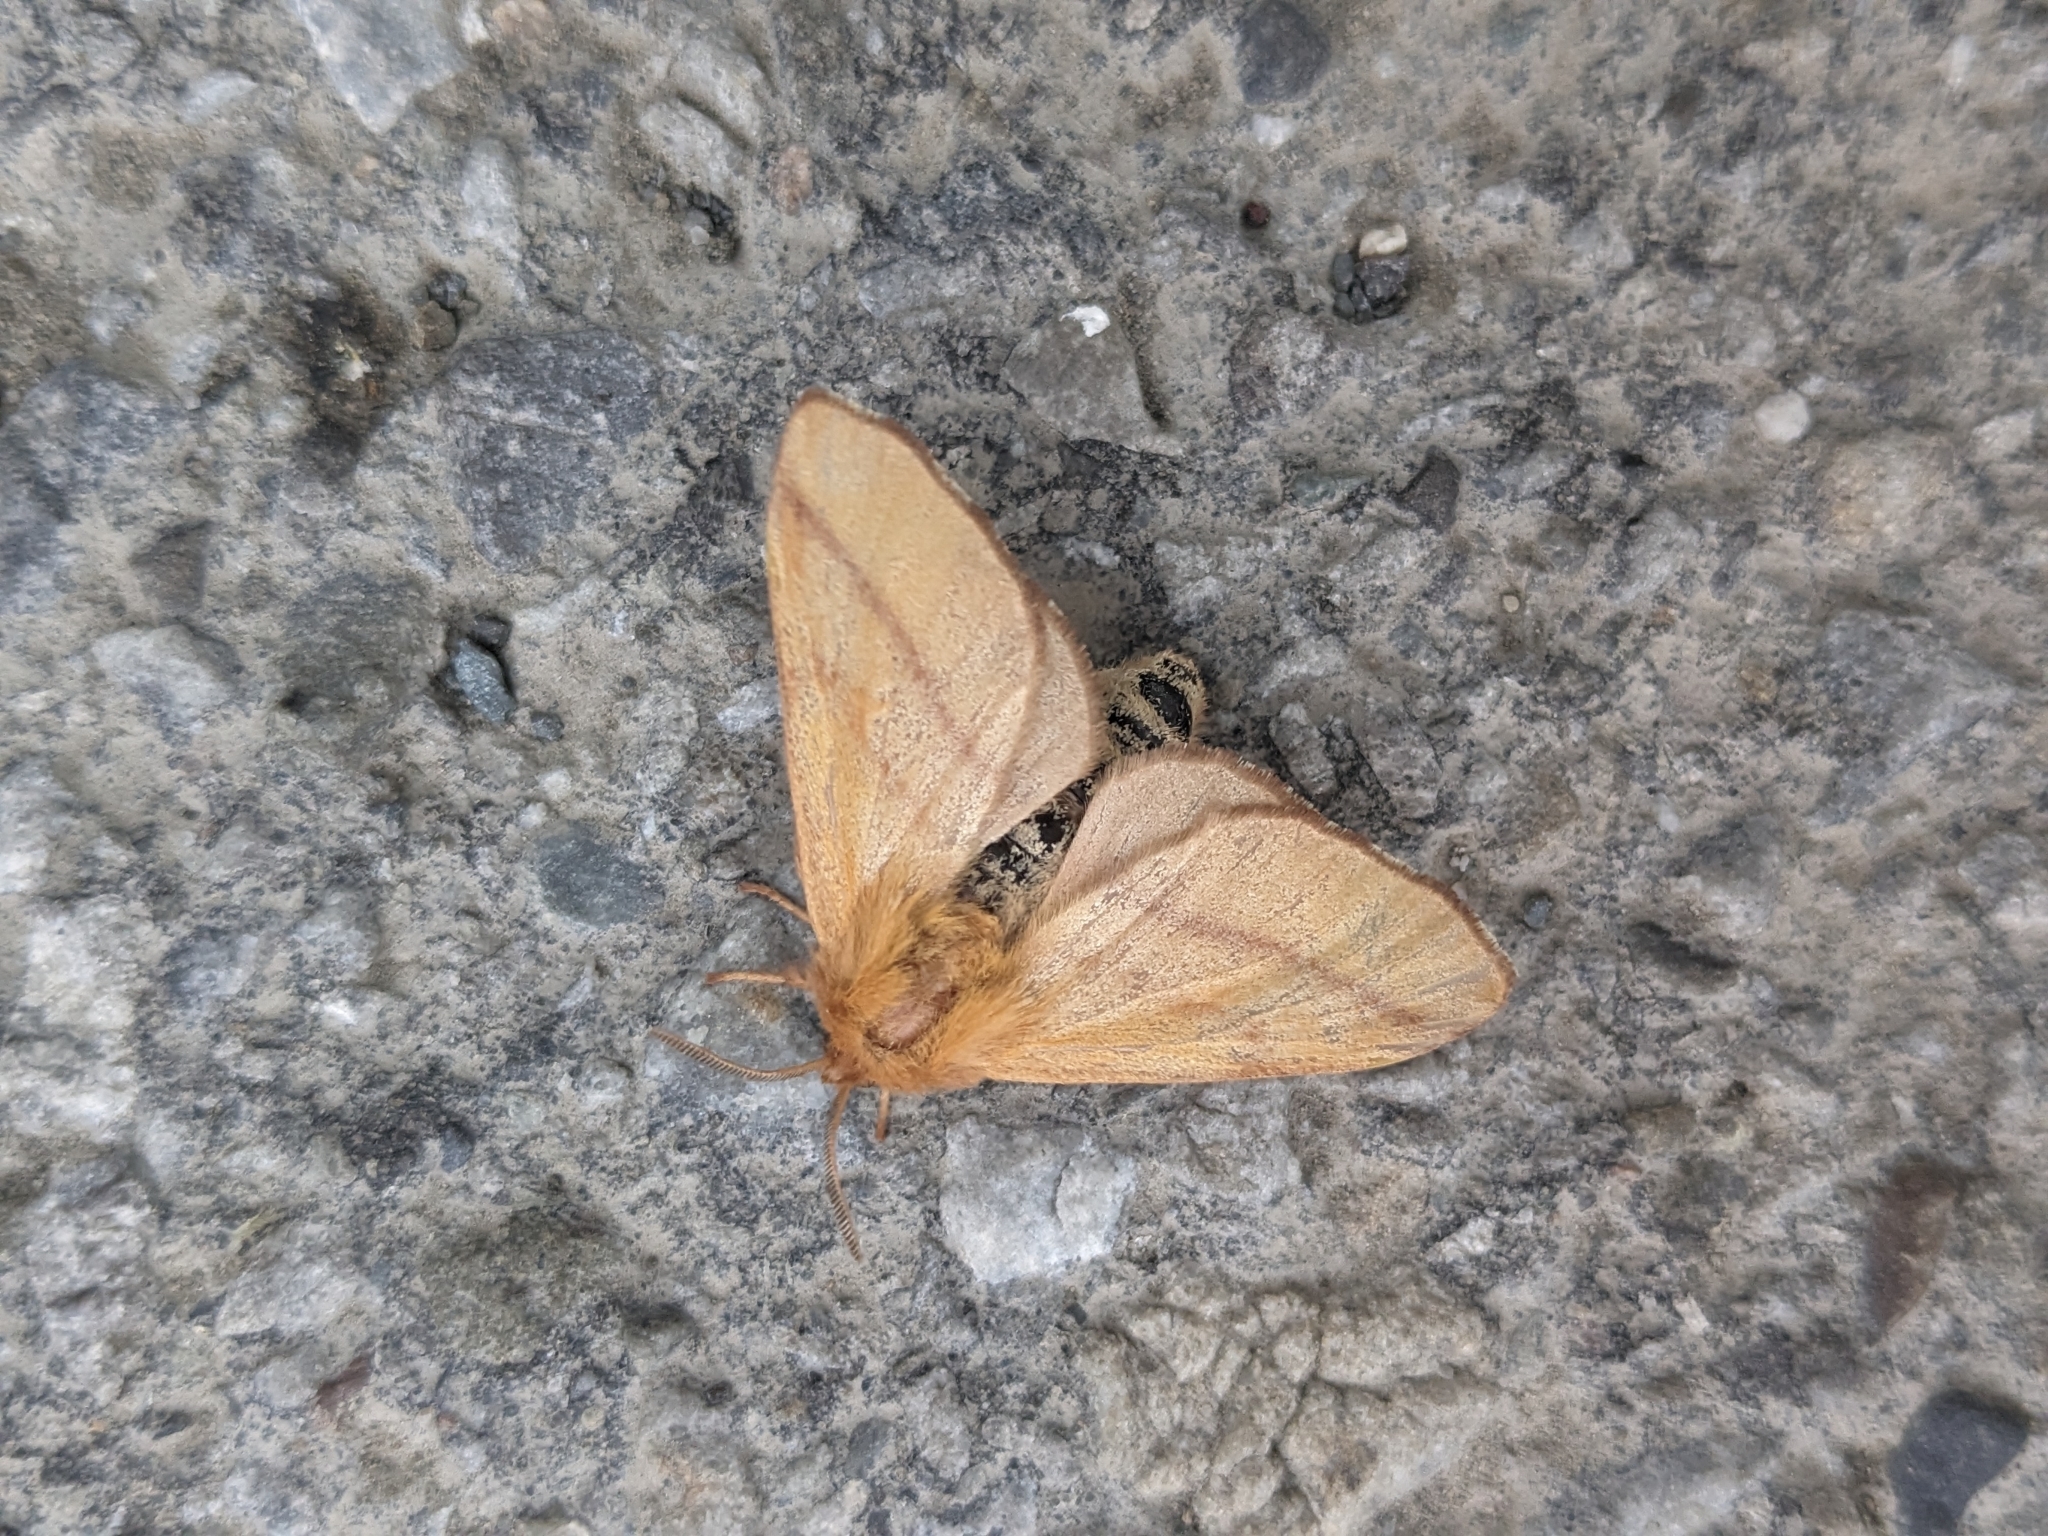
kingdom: Animalia
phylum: Arthropoda
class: Insecta
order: Lepidoptera
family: Lasiocampidae
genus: Malacosoma
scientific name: Malacosoma disstria
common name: Forest tent caterpillar
